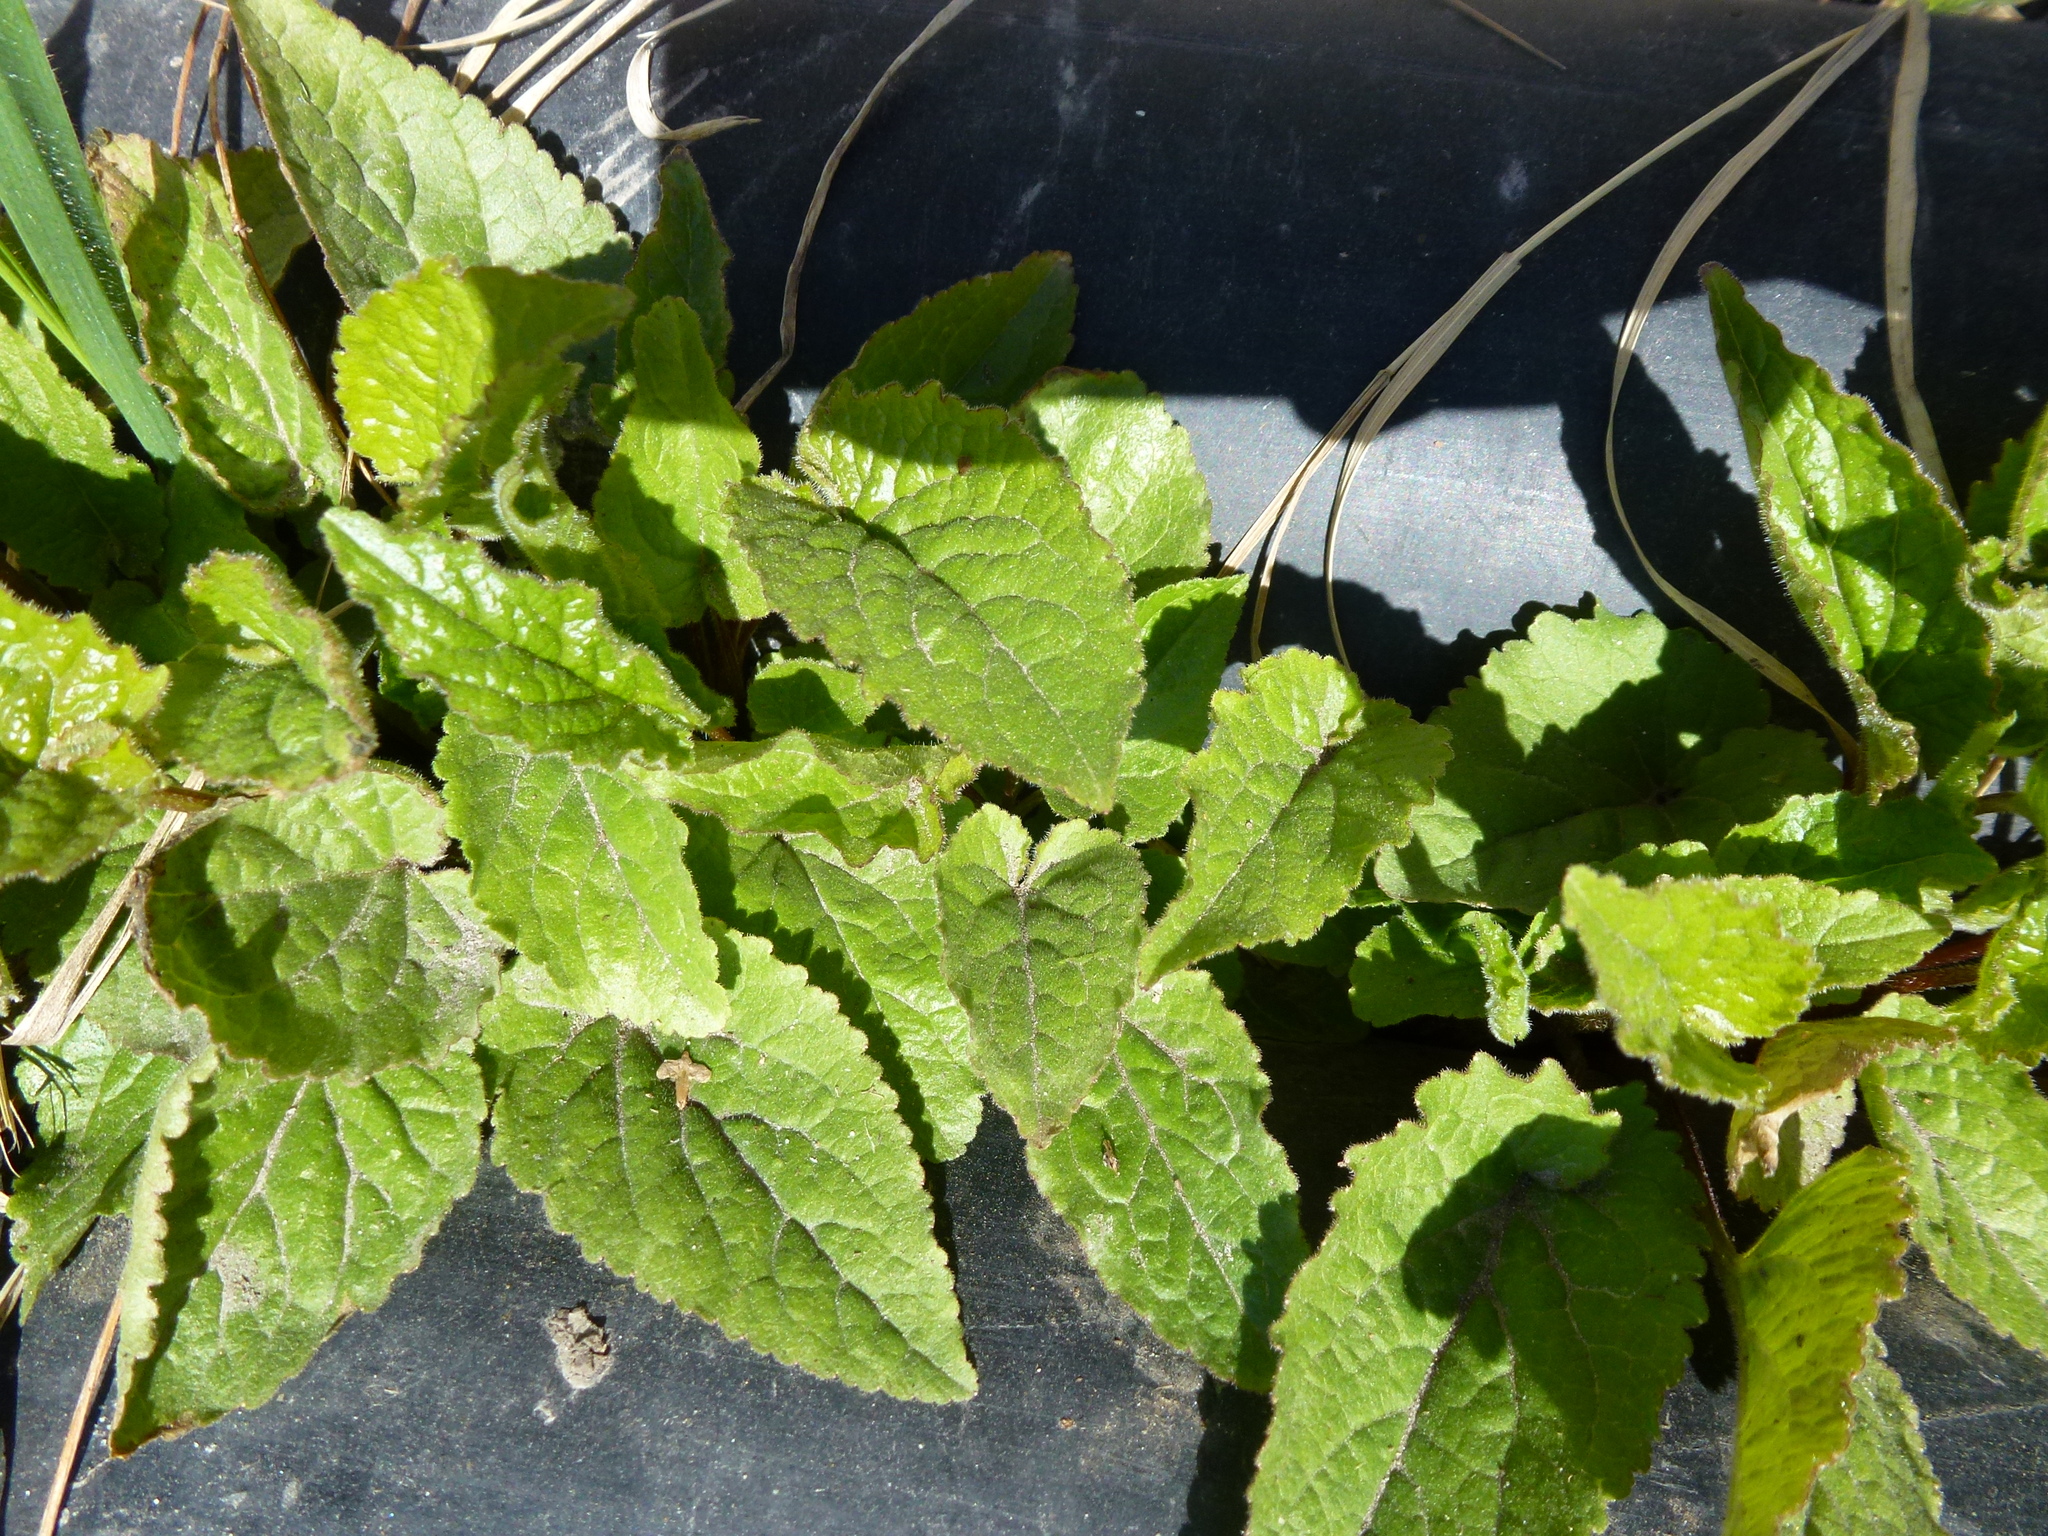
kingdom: Plantae
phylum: Tracheophyta
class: Magnoliopsida
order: Asterales
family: Campanulaceae
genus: Campanula
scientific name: Campanula rapunculoides
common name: Creeping bellflower
